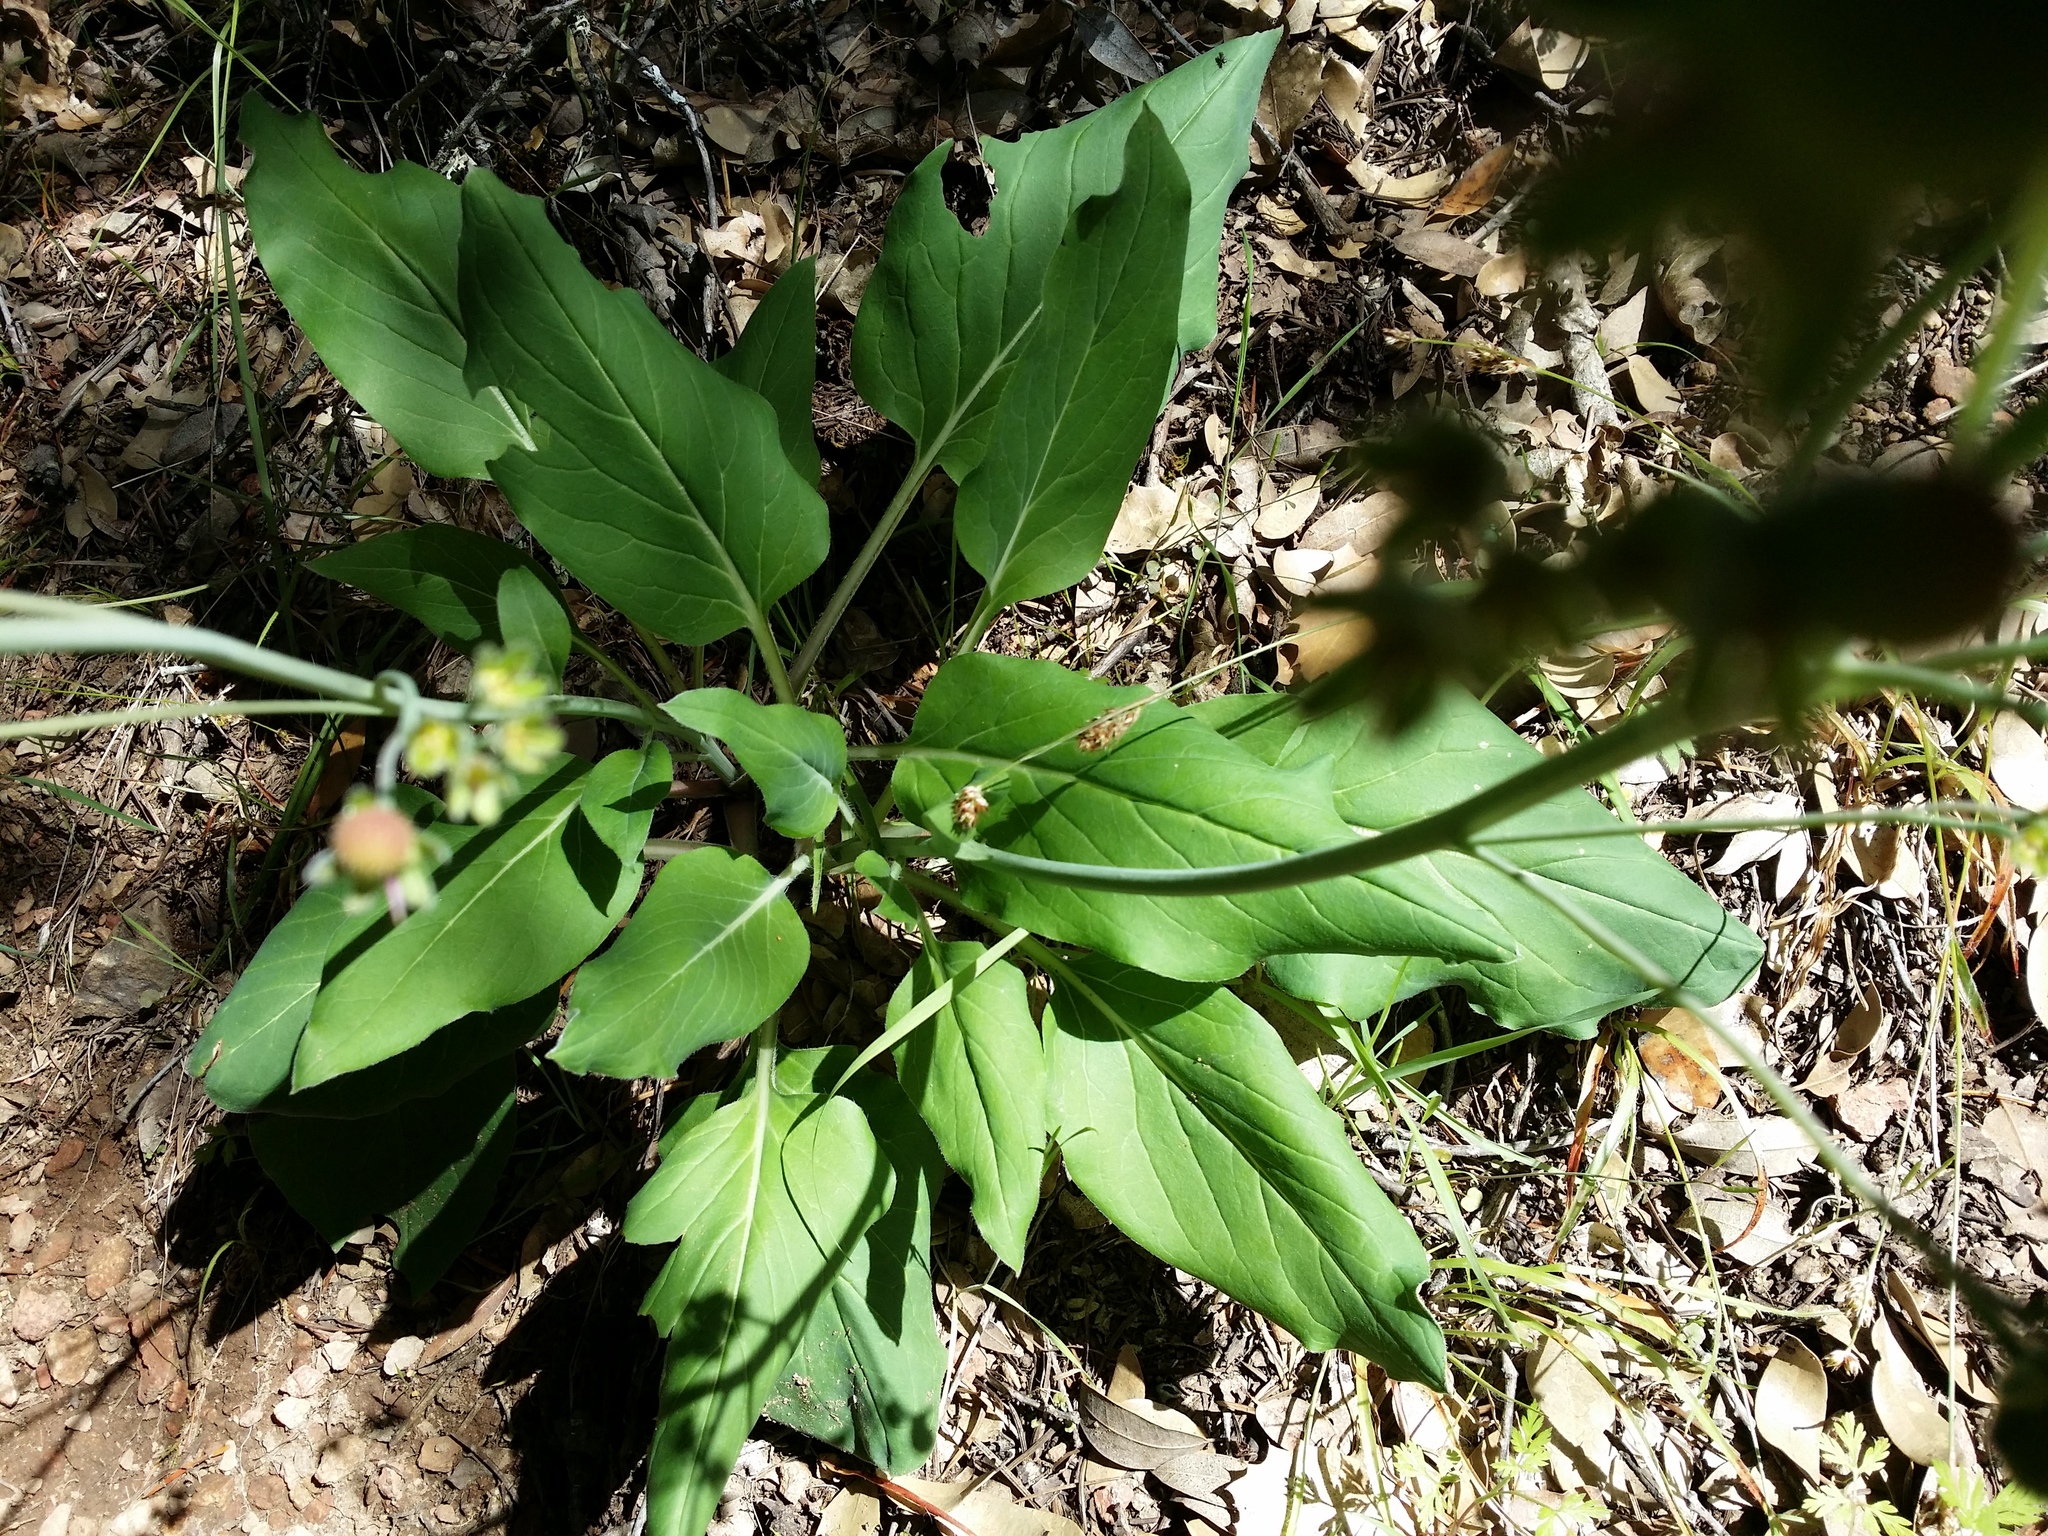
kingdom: Plantae
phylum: Tracheophyta
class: Magnoliopsida
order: Boraginales
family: Boraginaceae
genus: Adelinia
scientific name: Adelinia grande
